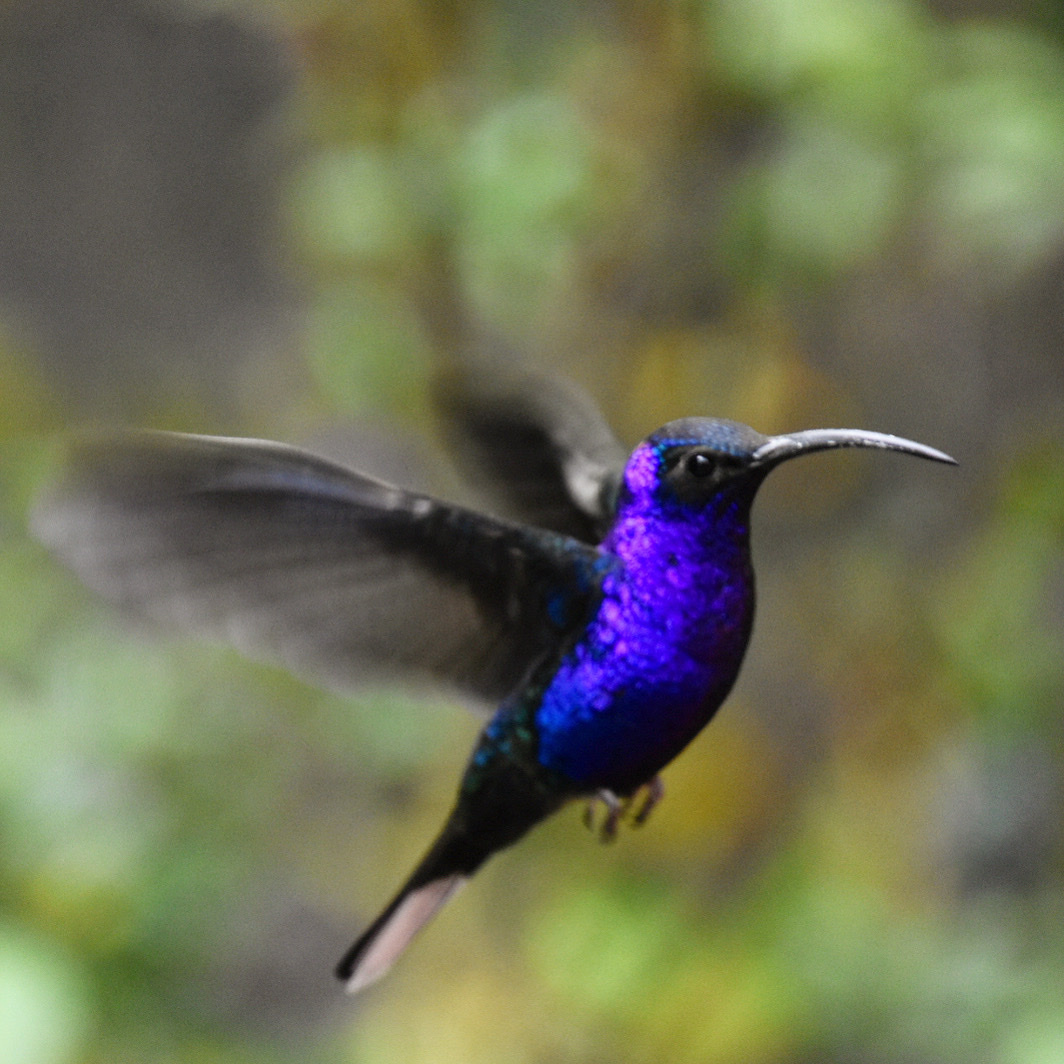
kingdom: Animalia
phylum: Chordata
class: Aves
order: Apodiformes
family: Trochilidae
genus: Campylopterus
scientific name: Campylopterus hemileucurus
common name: Violet sabrewing
